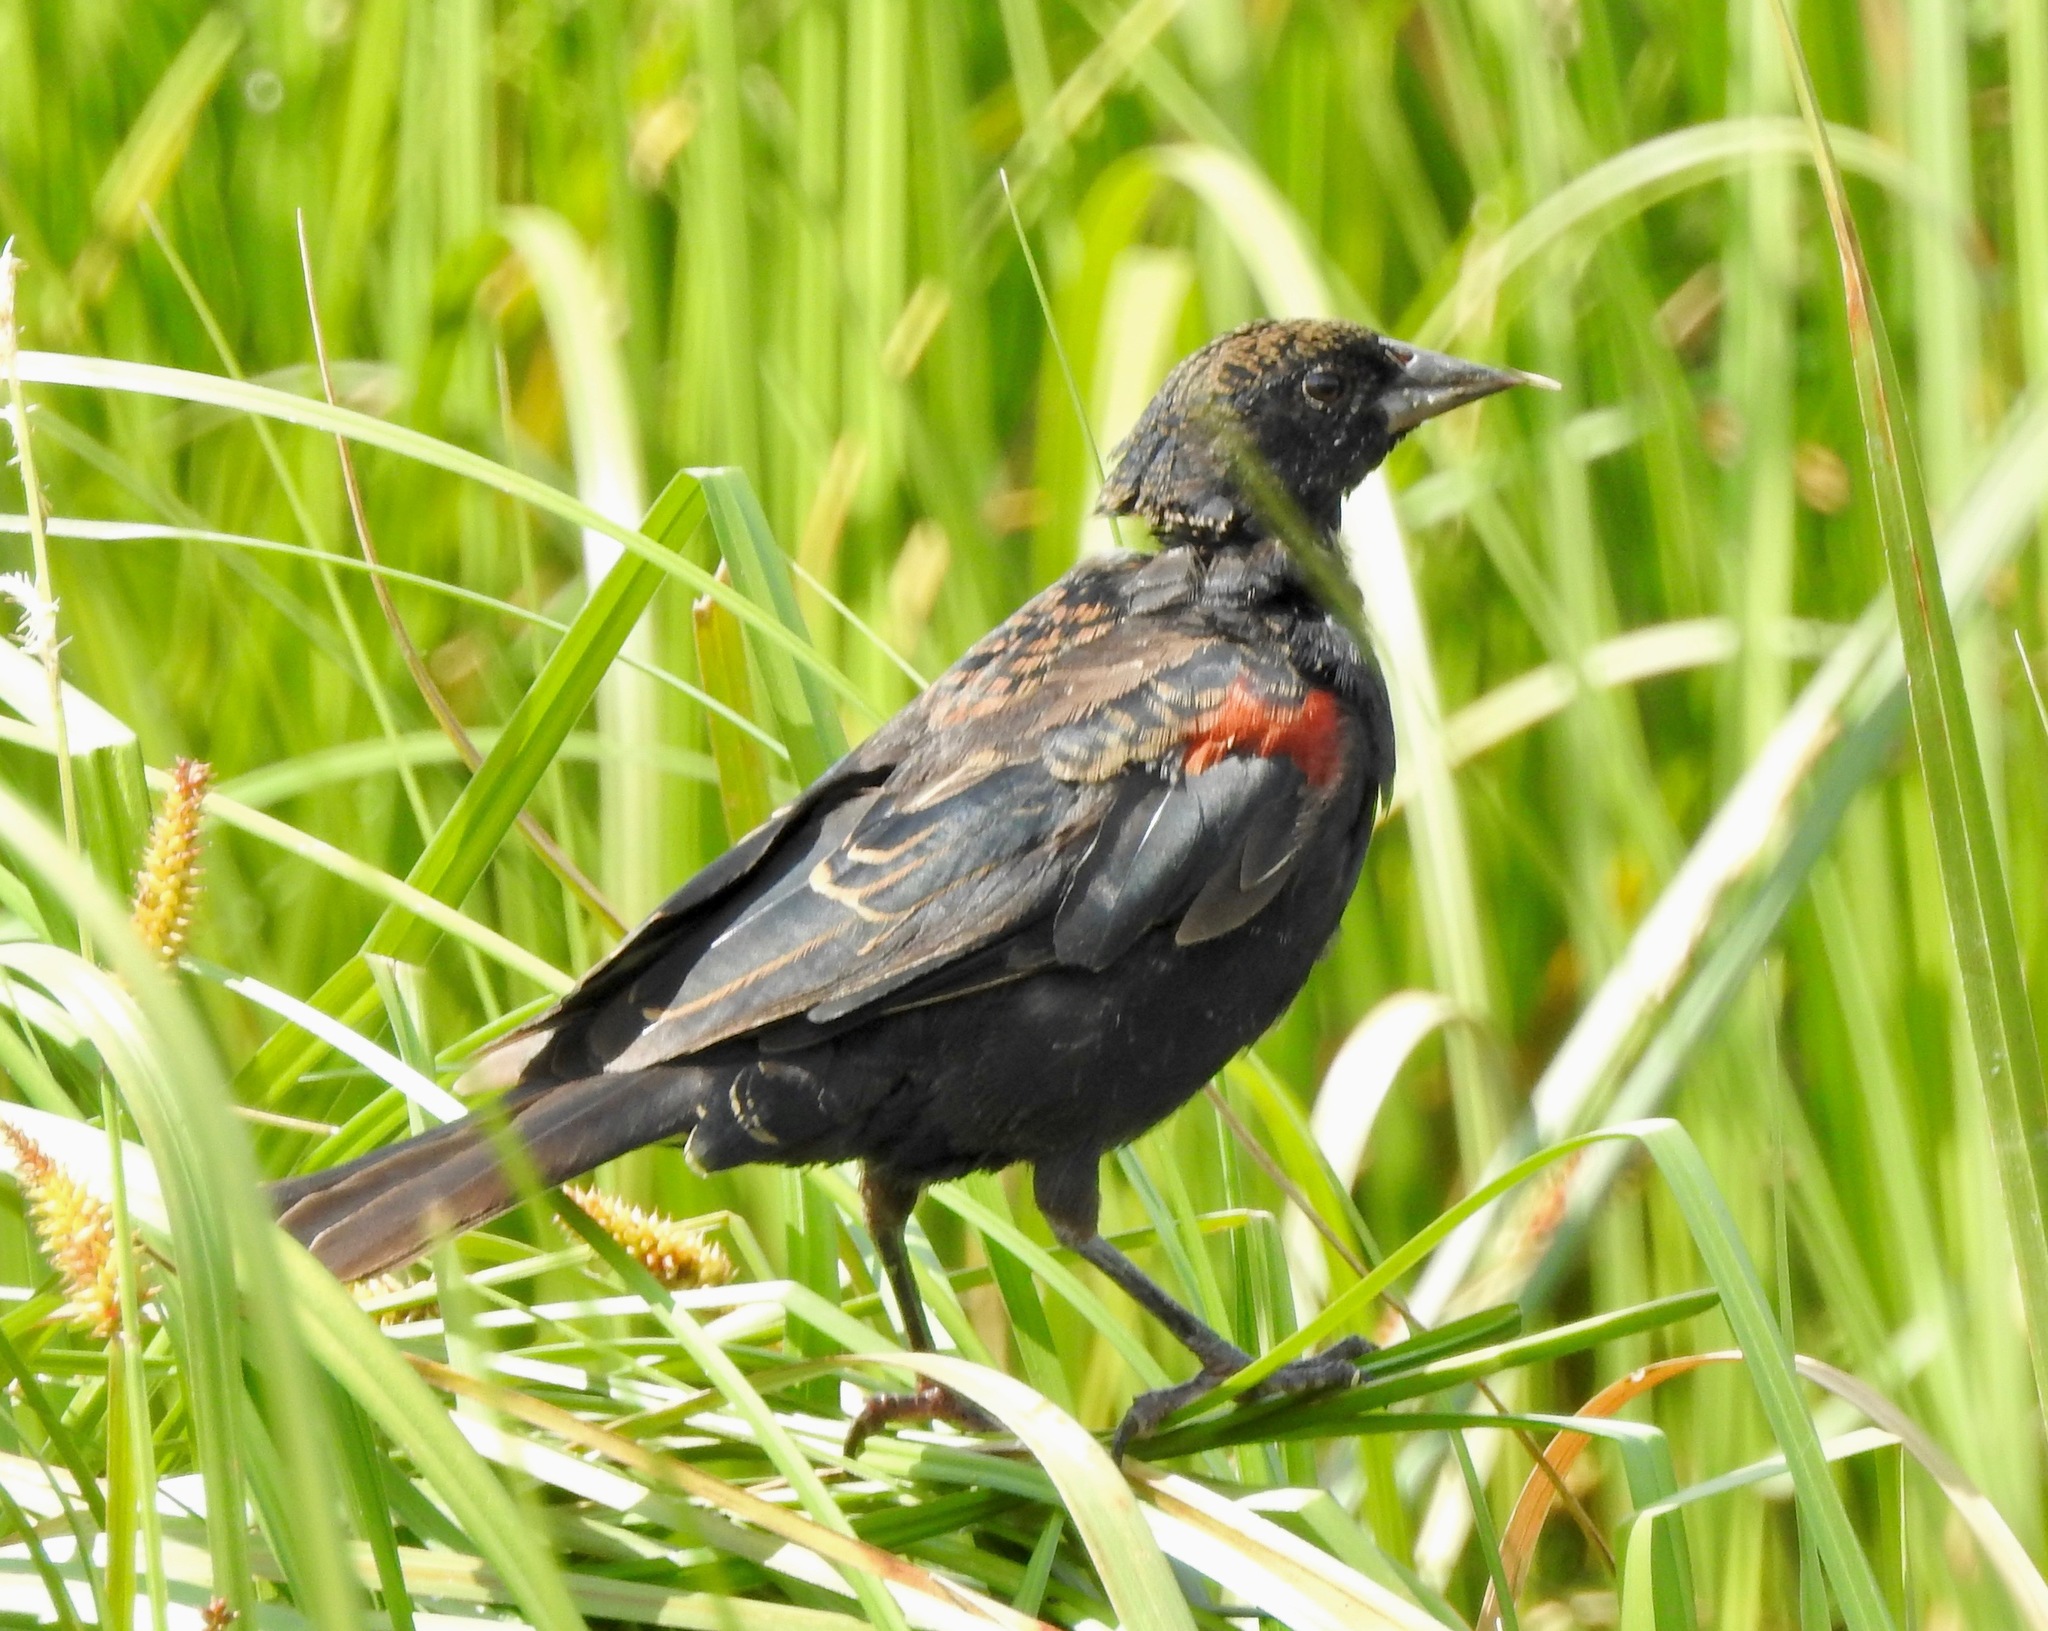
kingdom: Animalia
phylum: Chordata
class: Aves
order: Passeriformes
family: Icteridae
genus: Agelaius
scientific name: Agelaius phoeniceus
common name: Red-winged blackbird
